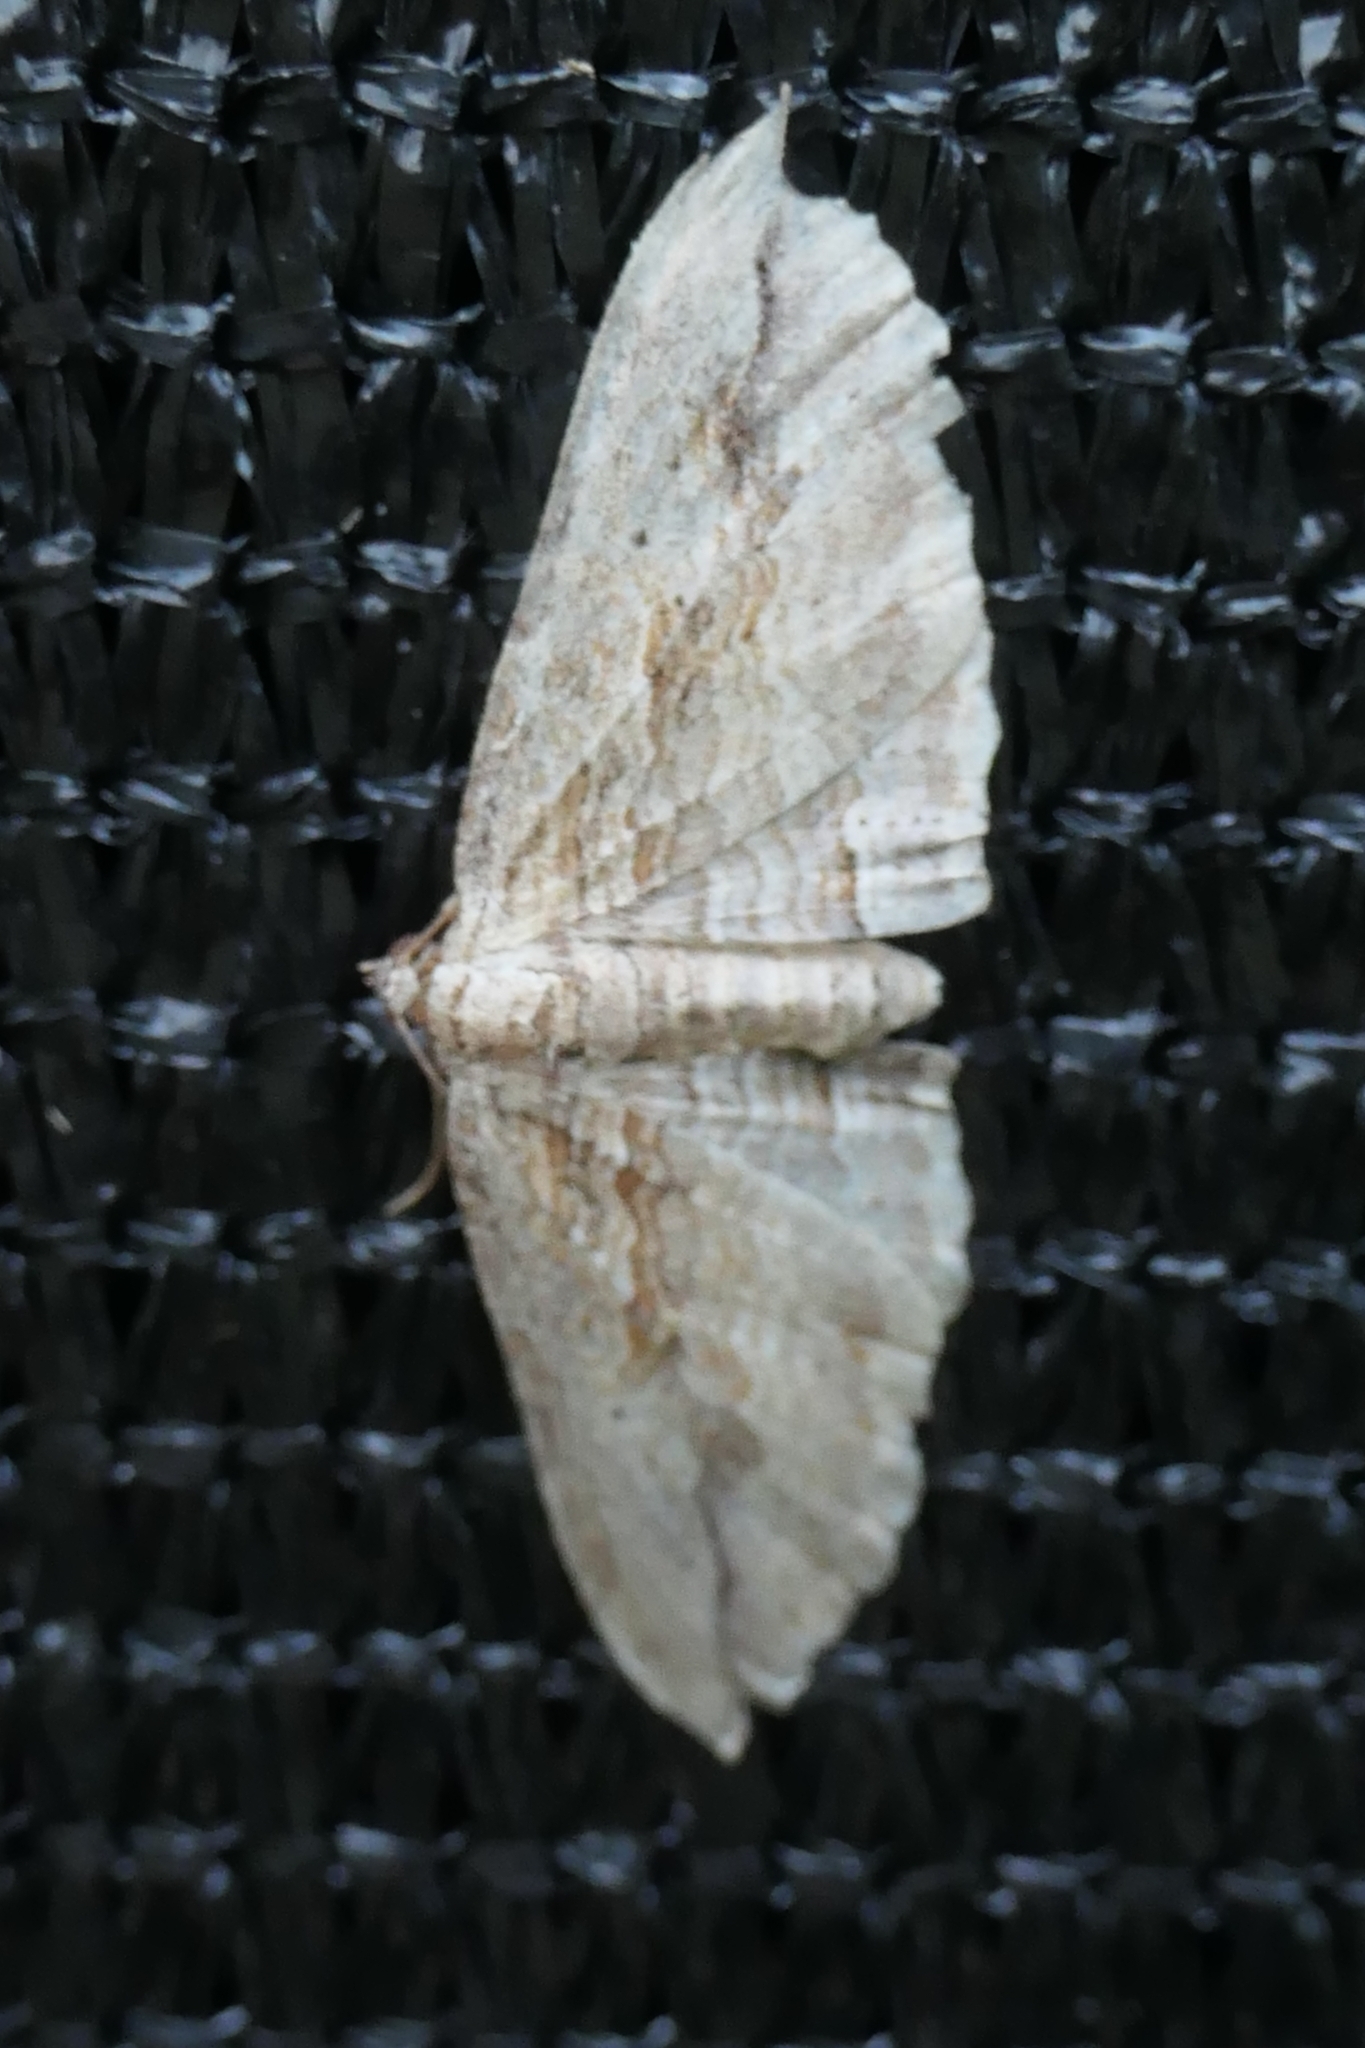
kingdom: Animalia
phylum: Arthropoda
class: Insecta
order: Lepidoptera
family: Geometridae
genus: Austrocidaria
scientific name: Austrocidaria gobiata
